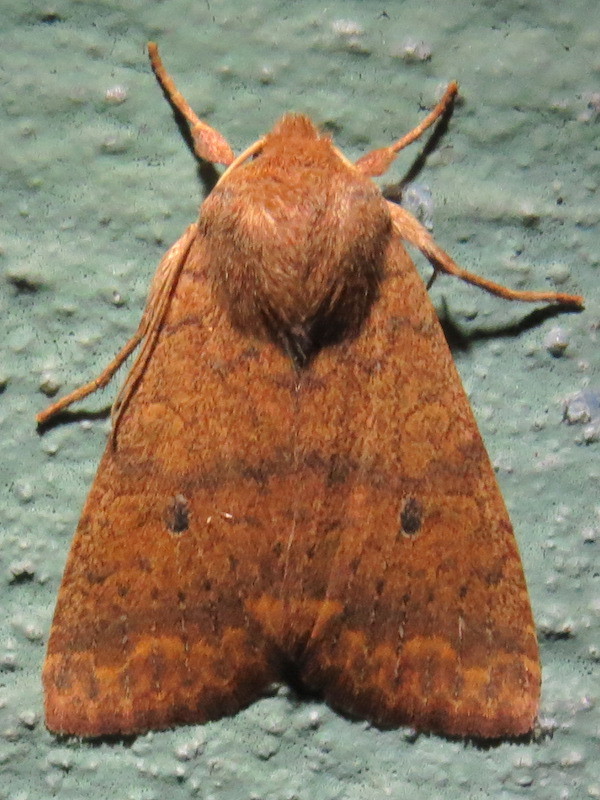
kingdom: Animalia
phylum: Arthropoda
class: Insecta
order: Lepidoptera
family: Noctuidae
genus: Agrochola
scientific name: Agrochola bicolorago
